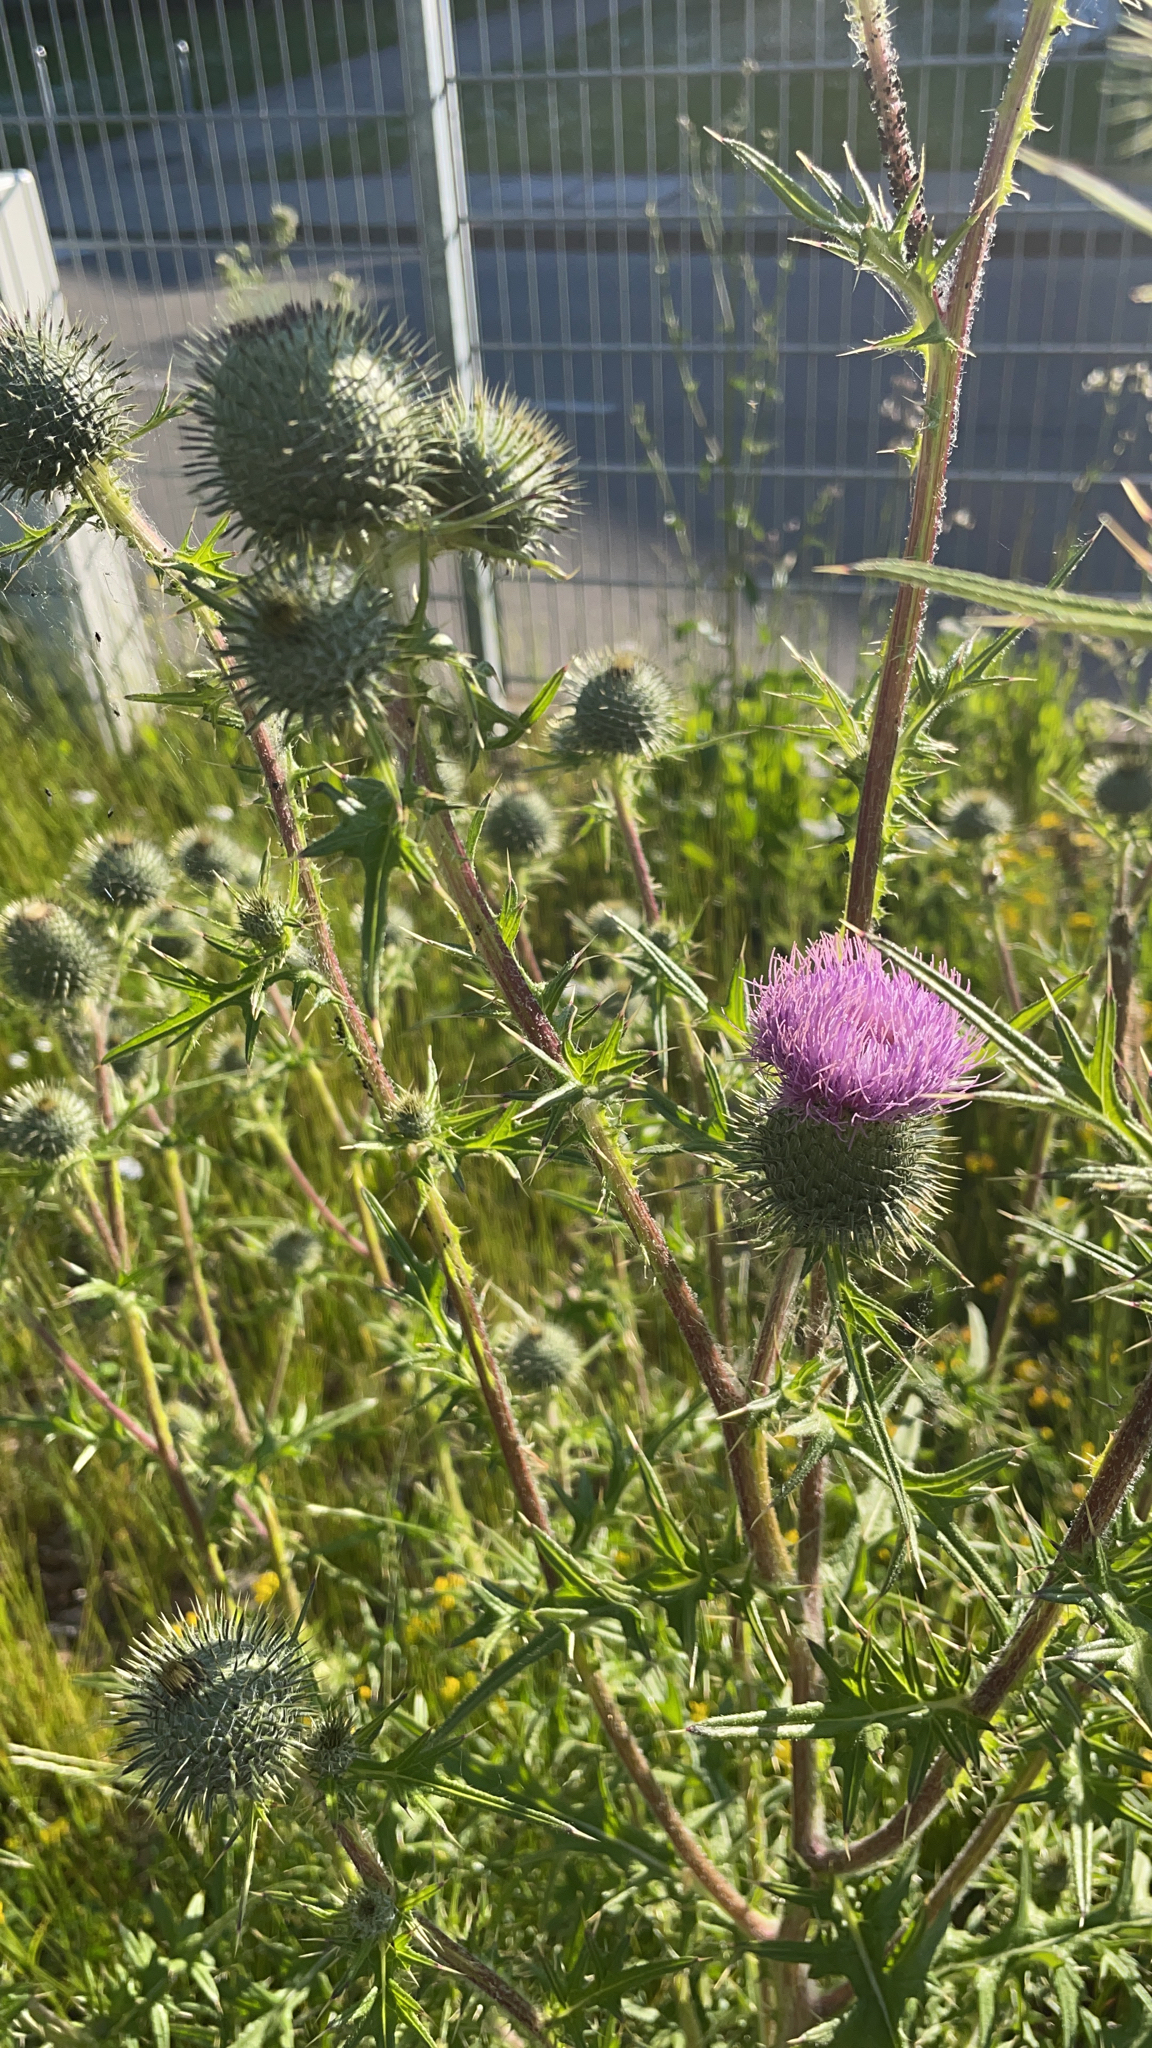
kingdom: Plantae
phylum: Tracheophyta
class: Magnoliopsida
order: Asterales
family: Asteraceae
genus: Cirsium
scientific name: Cirsium vulgare
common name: Bull thistle
